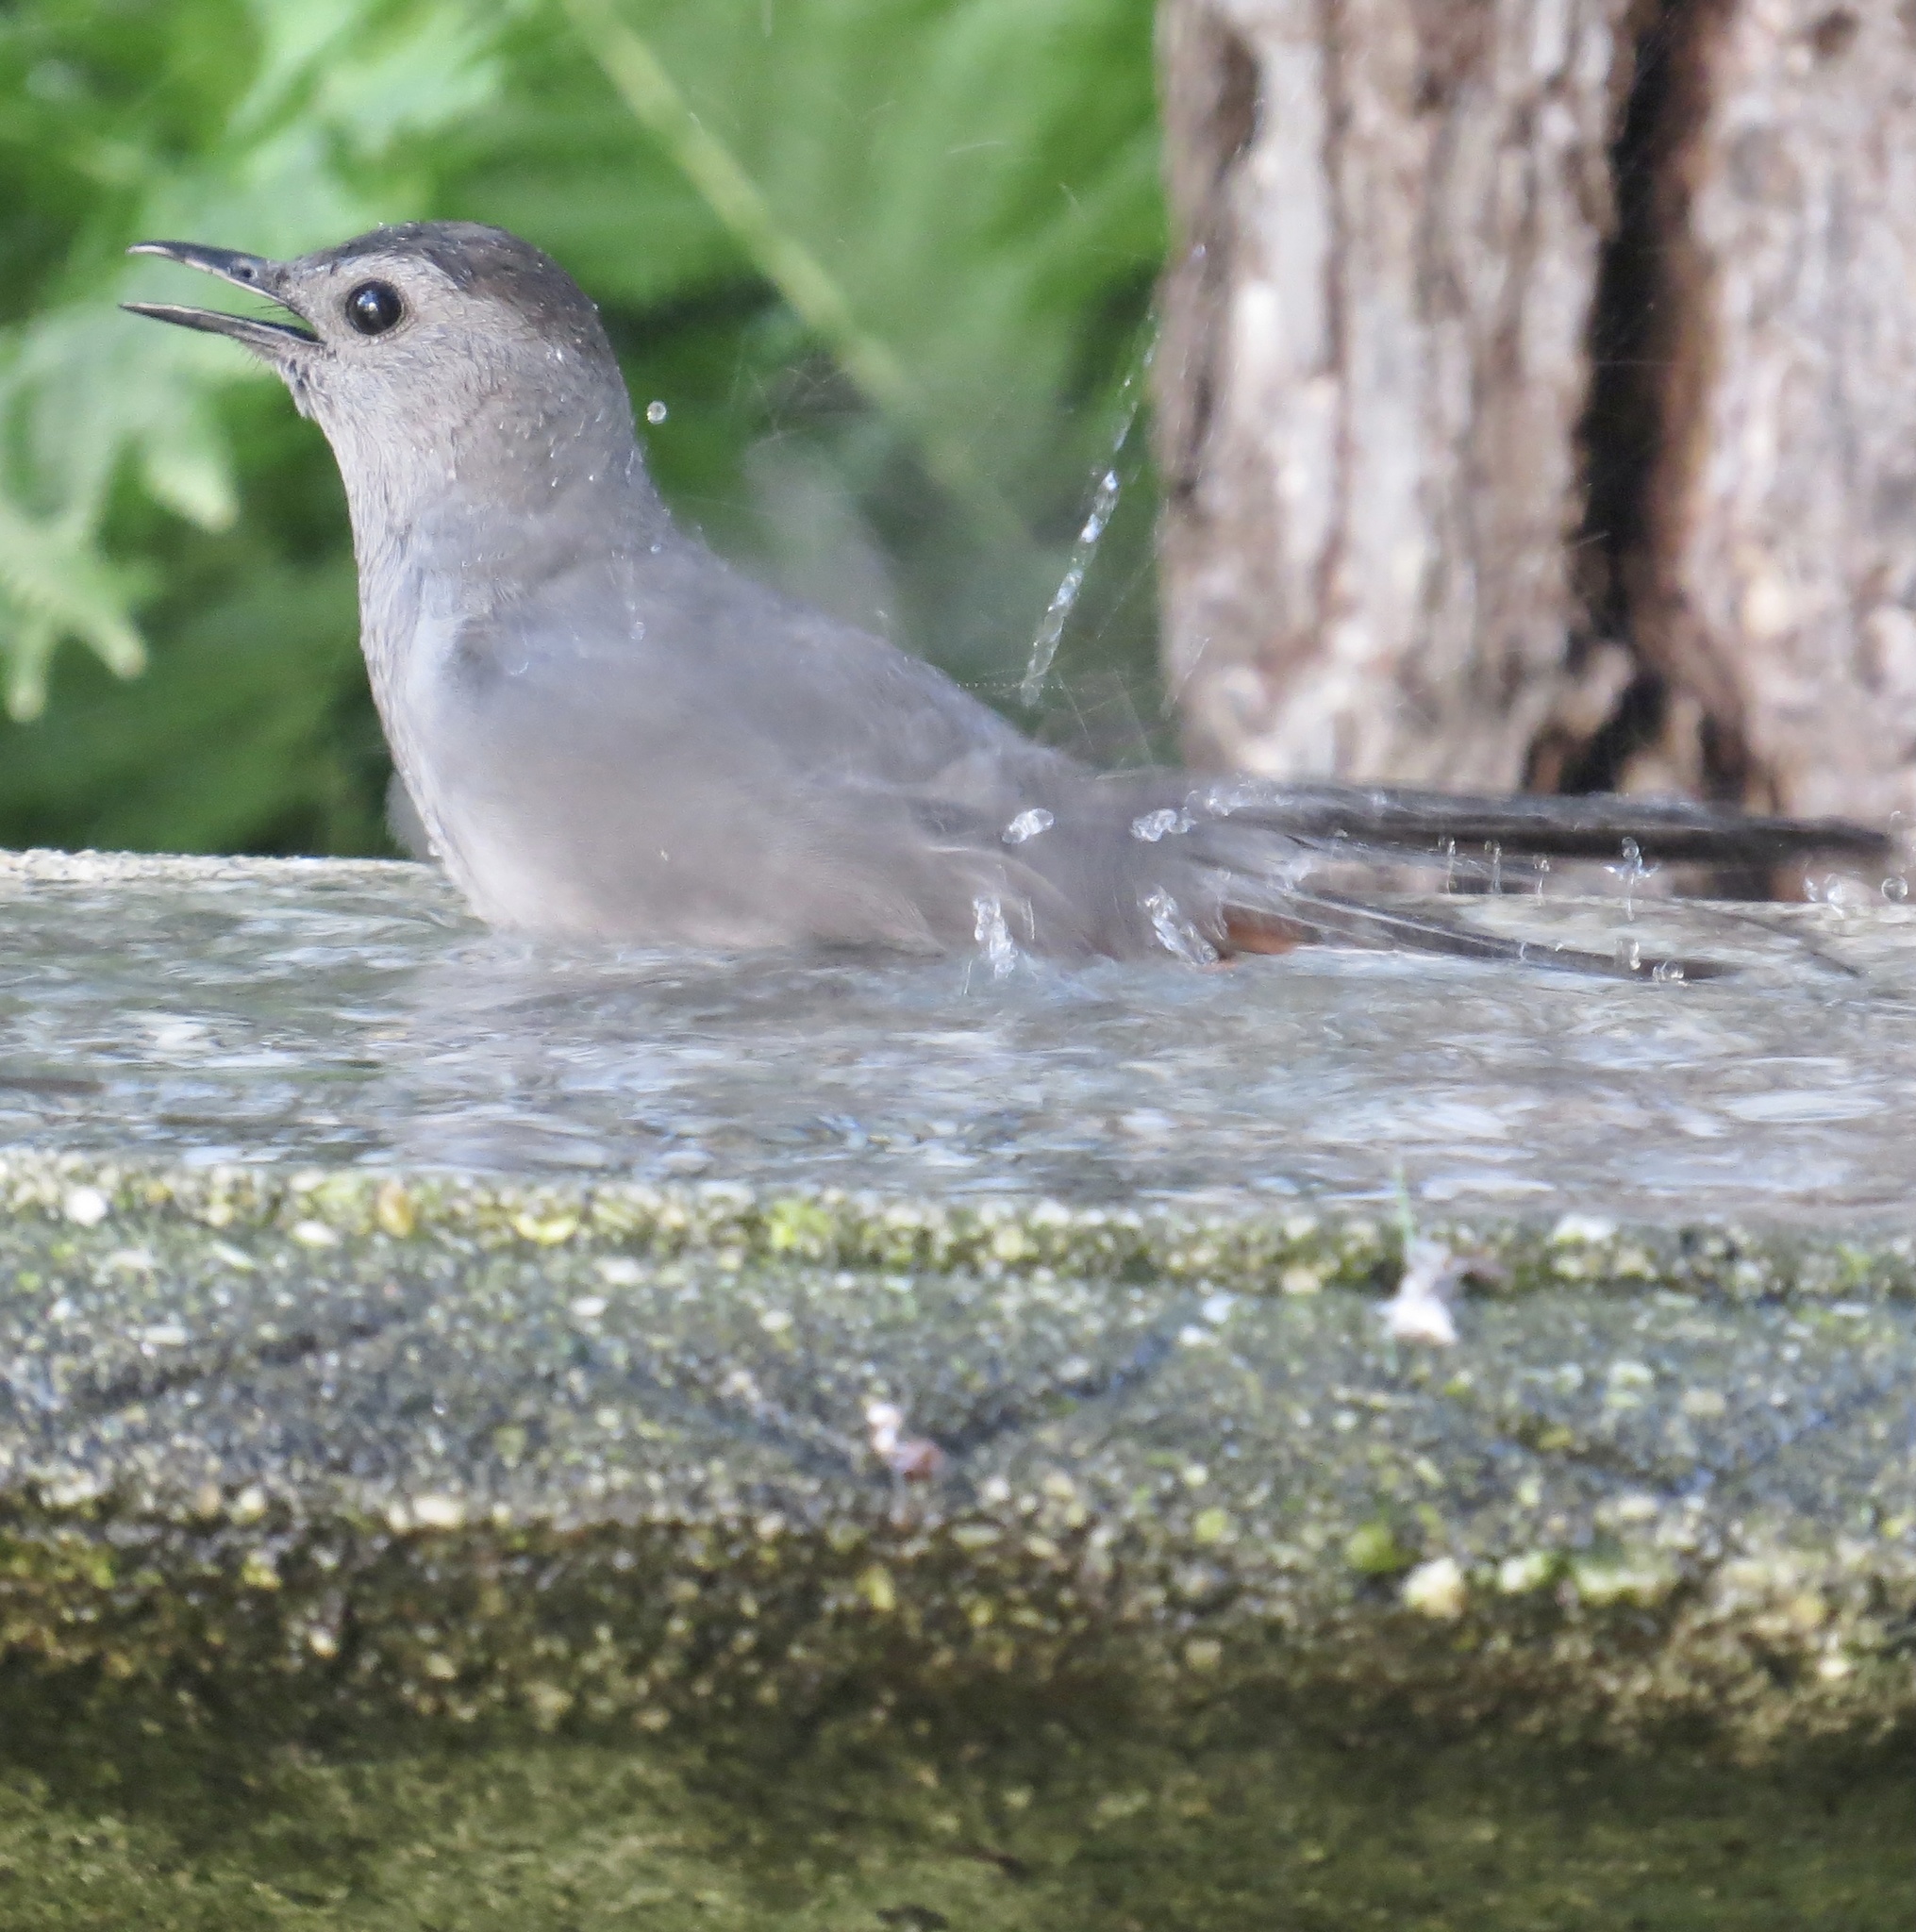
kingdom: Animalia
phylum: Chordata
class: Aves
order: Passeriformes
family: Mimidae
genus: Dumetella
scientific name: Dumetella carolinensis
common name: Gray catbird
